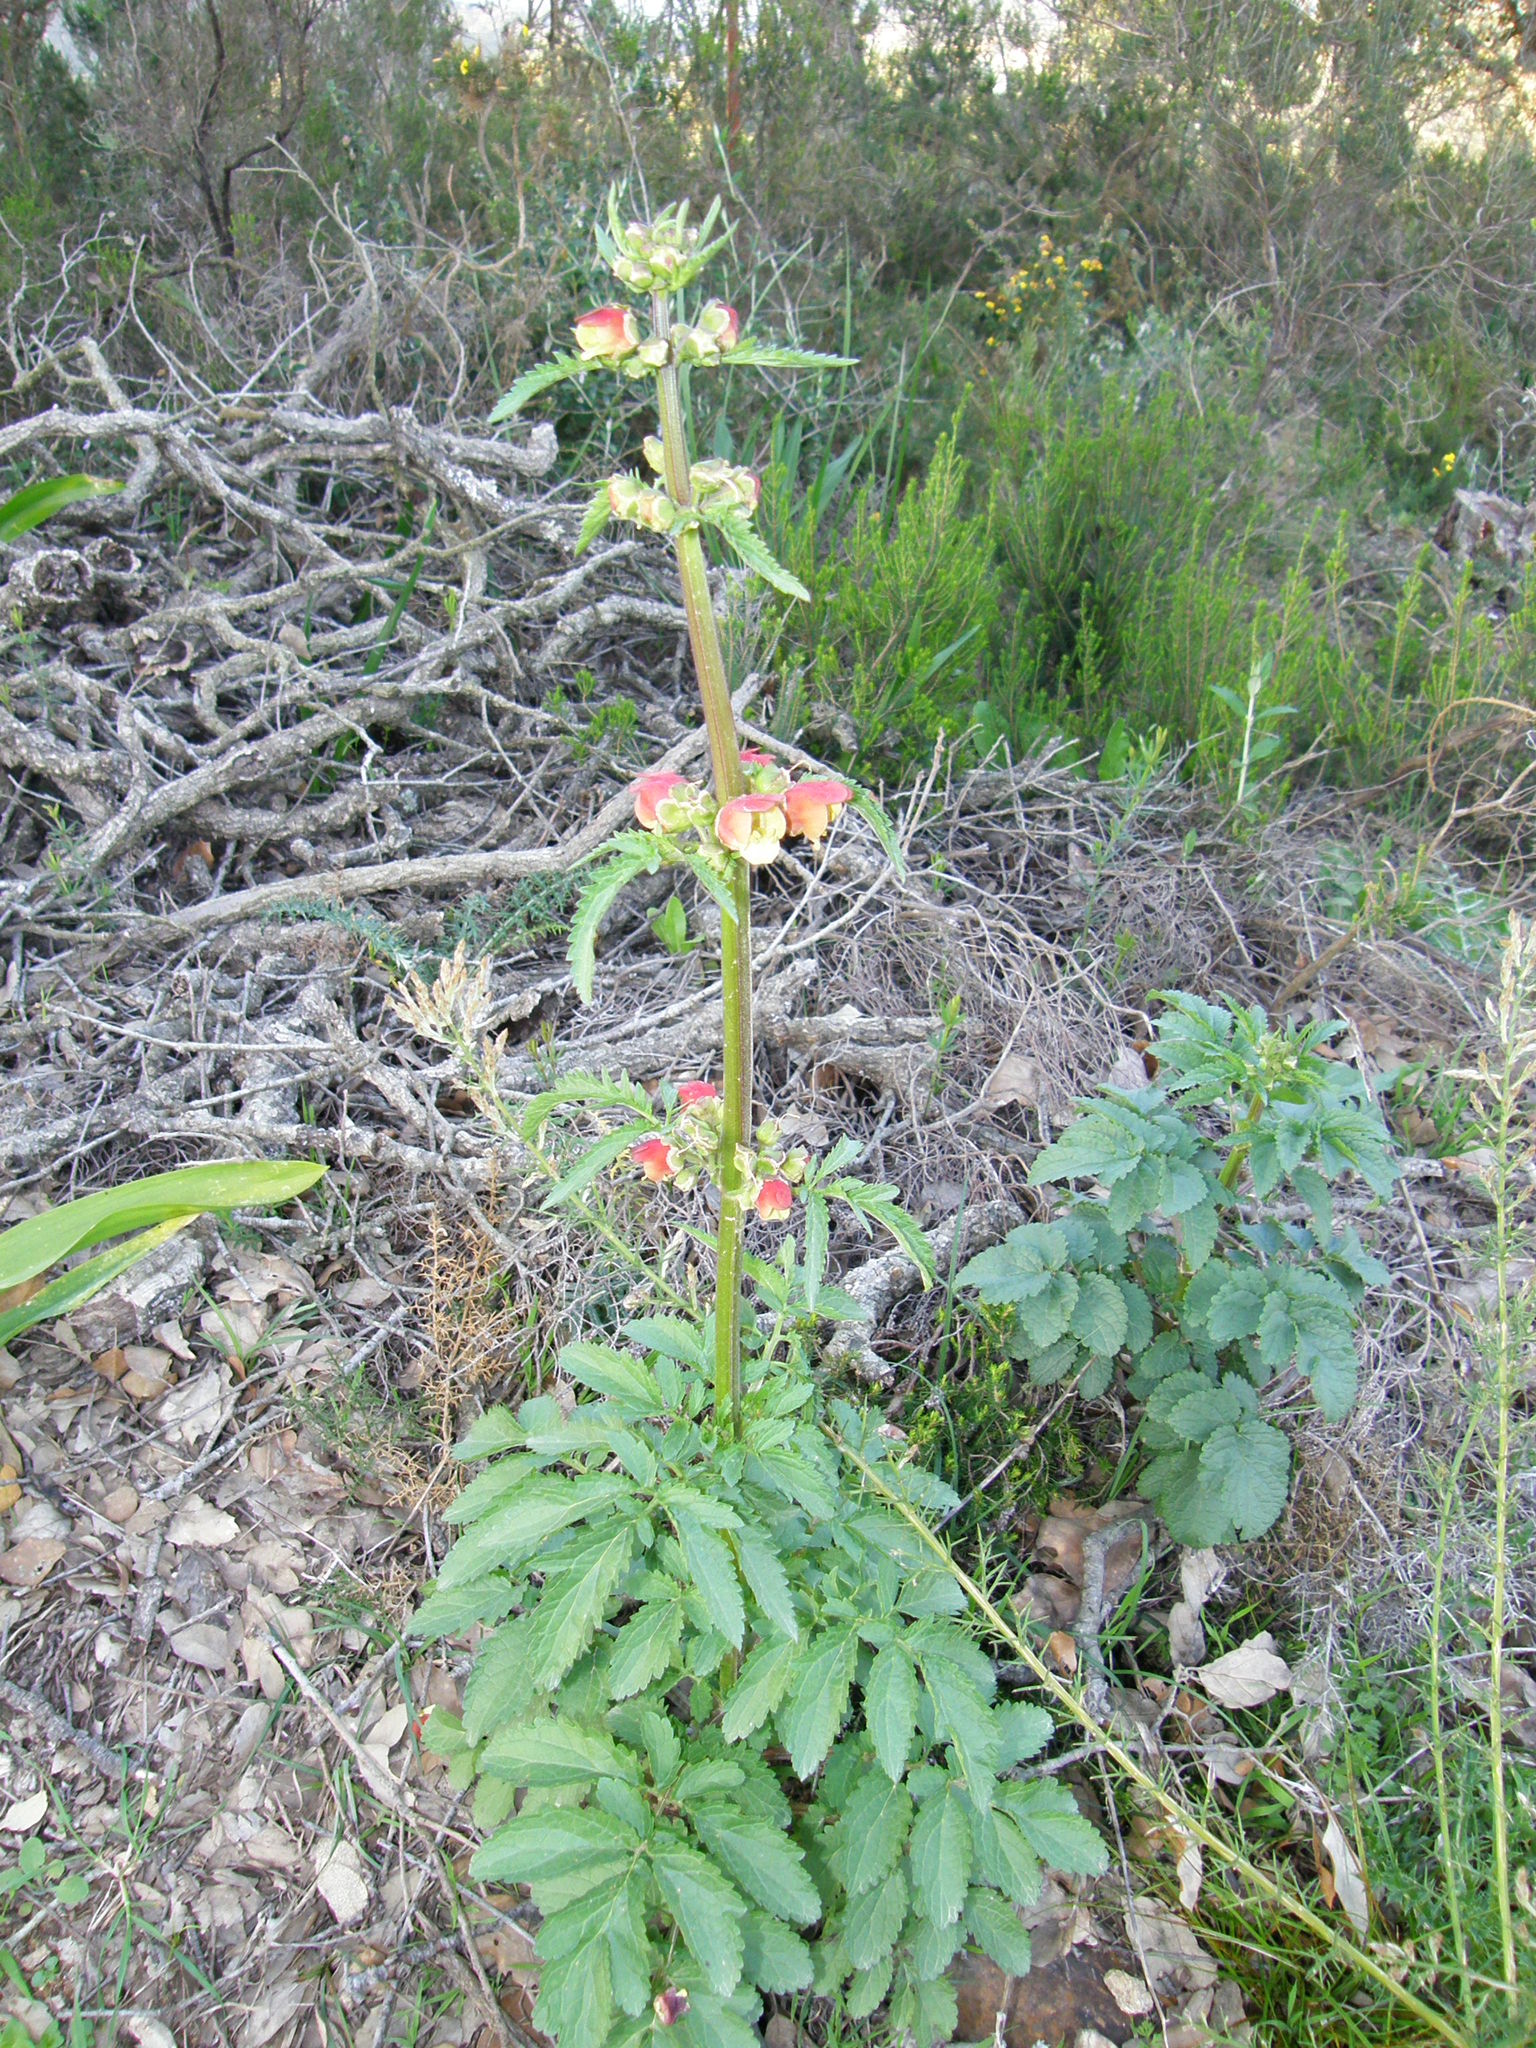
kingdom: Plantae
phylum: Tracheophyta
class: Magnoliopsida
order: Lamiales
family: Scrophulariaceae
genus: Scrophularia
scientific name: Scrophularia sambucifolia
